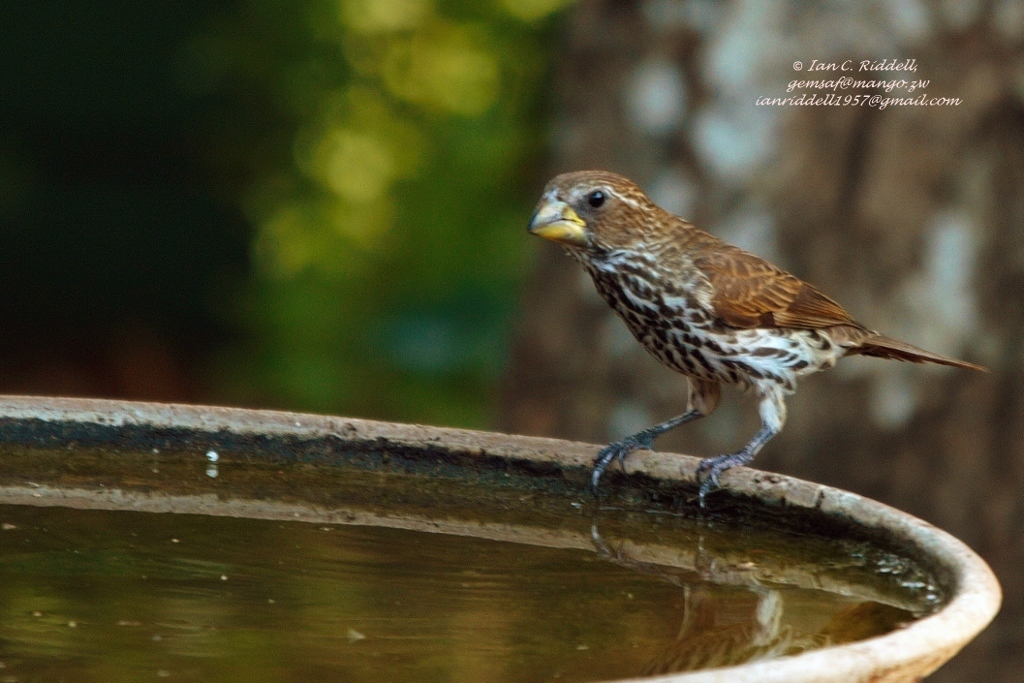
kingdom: Animalia
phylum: Chordata
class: Aves
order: Passeriformes
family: Ploceidae
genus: Amblyospiza
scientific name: Amblyospiza albifrons
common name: Thick-billed weaver
